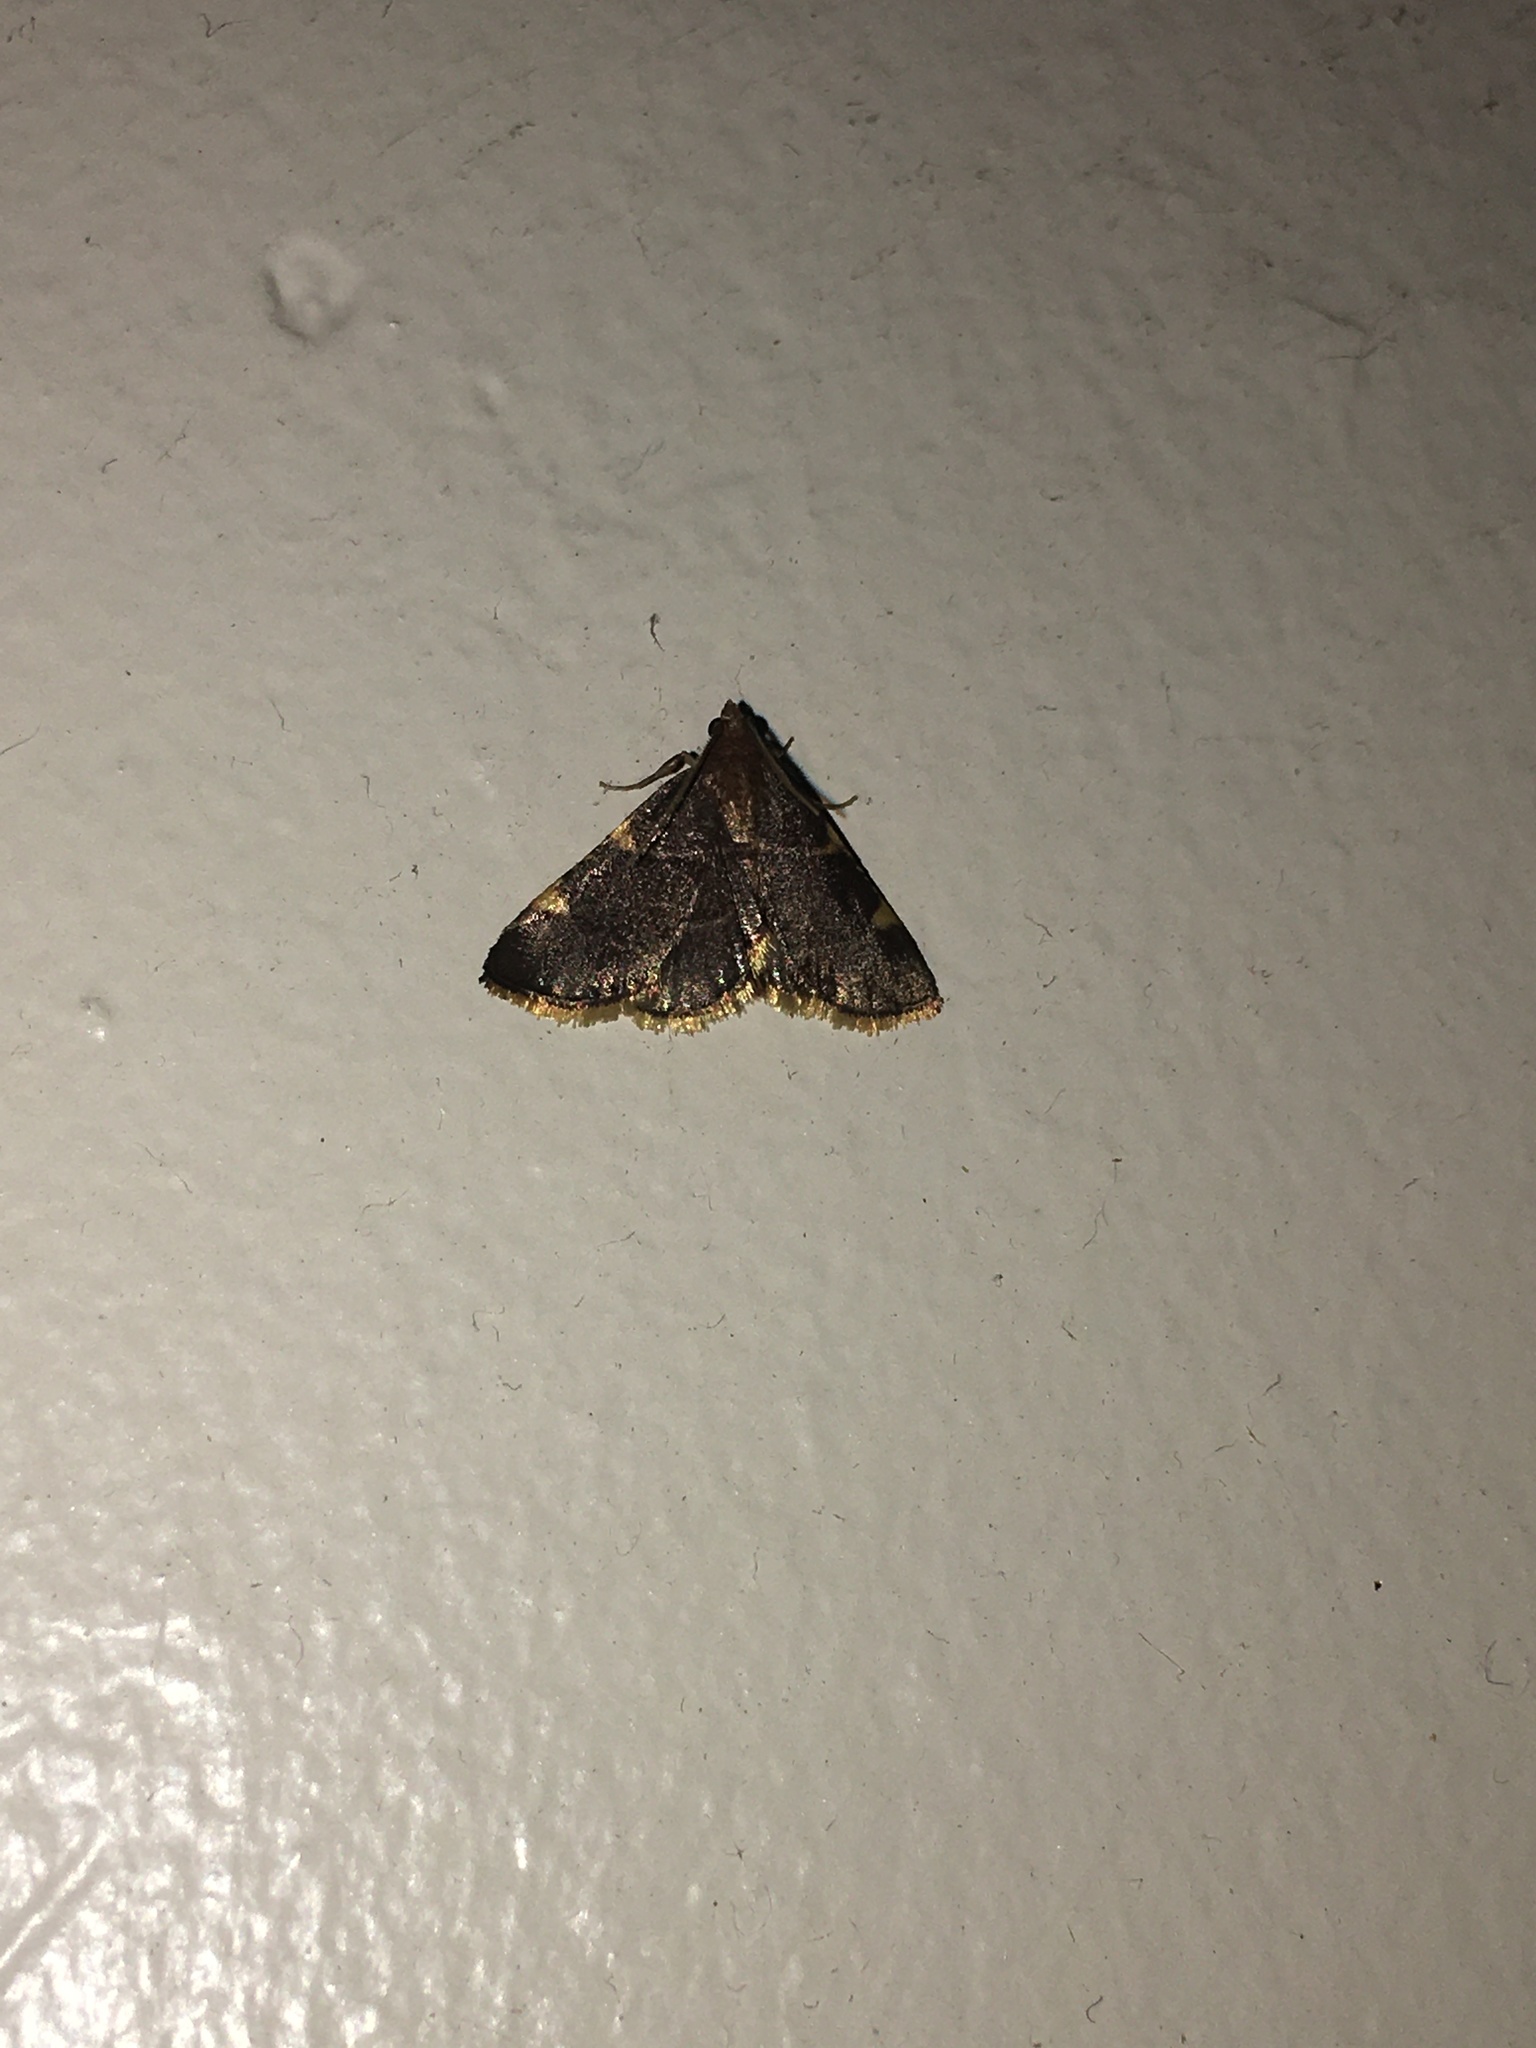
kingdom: Animalia
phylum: Arthropoda
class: Insecta
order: Lepidoptera
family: Pyralidae
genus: Hypsopygia
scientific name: Hypsopygia olinalis
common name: Yellow-fringed dolichomia moth
